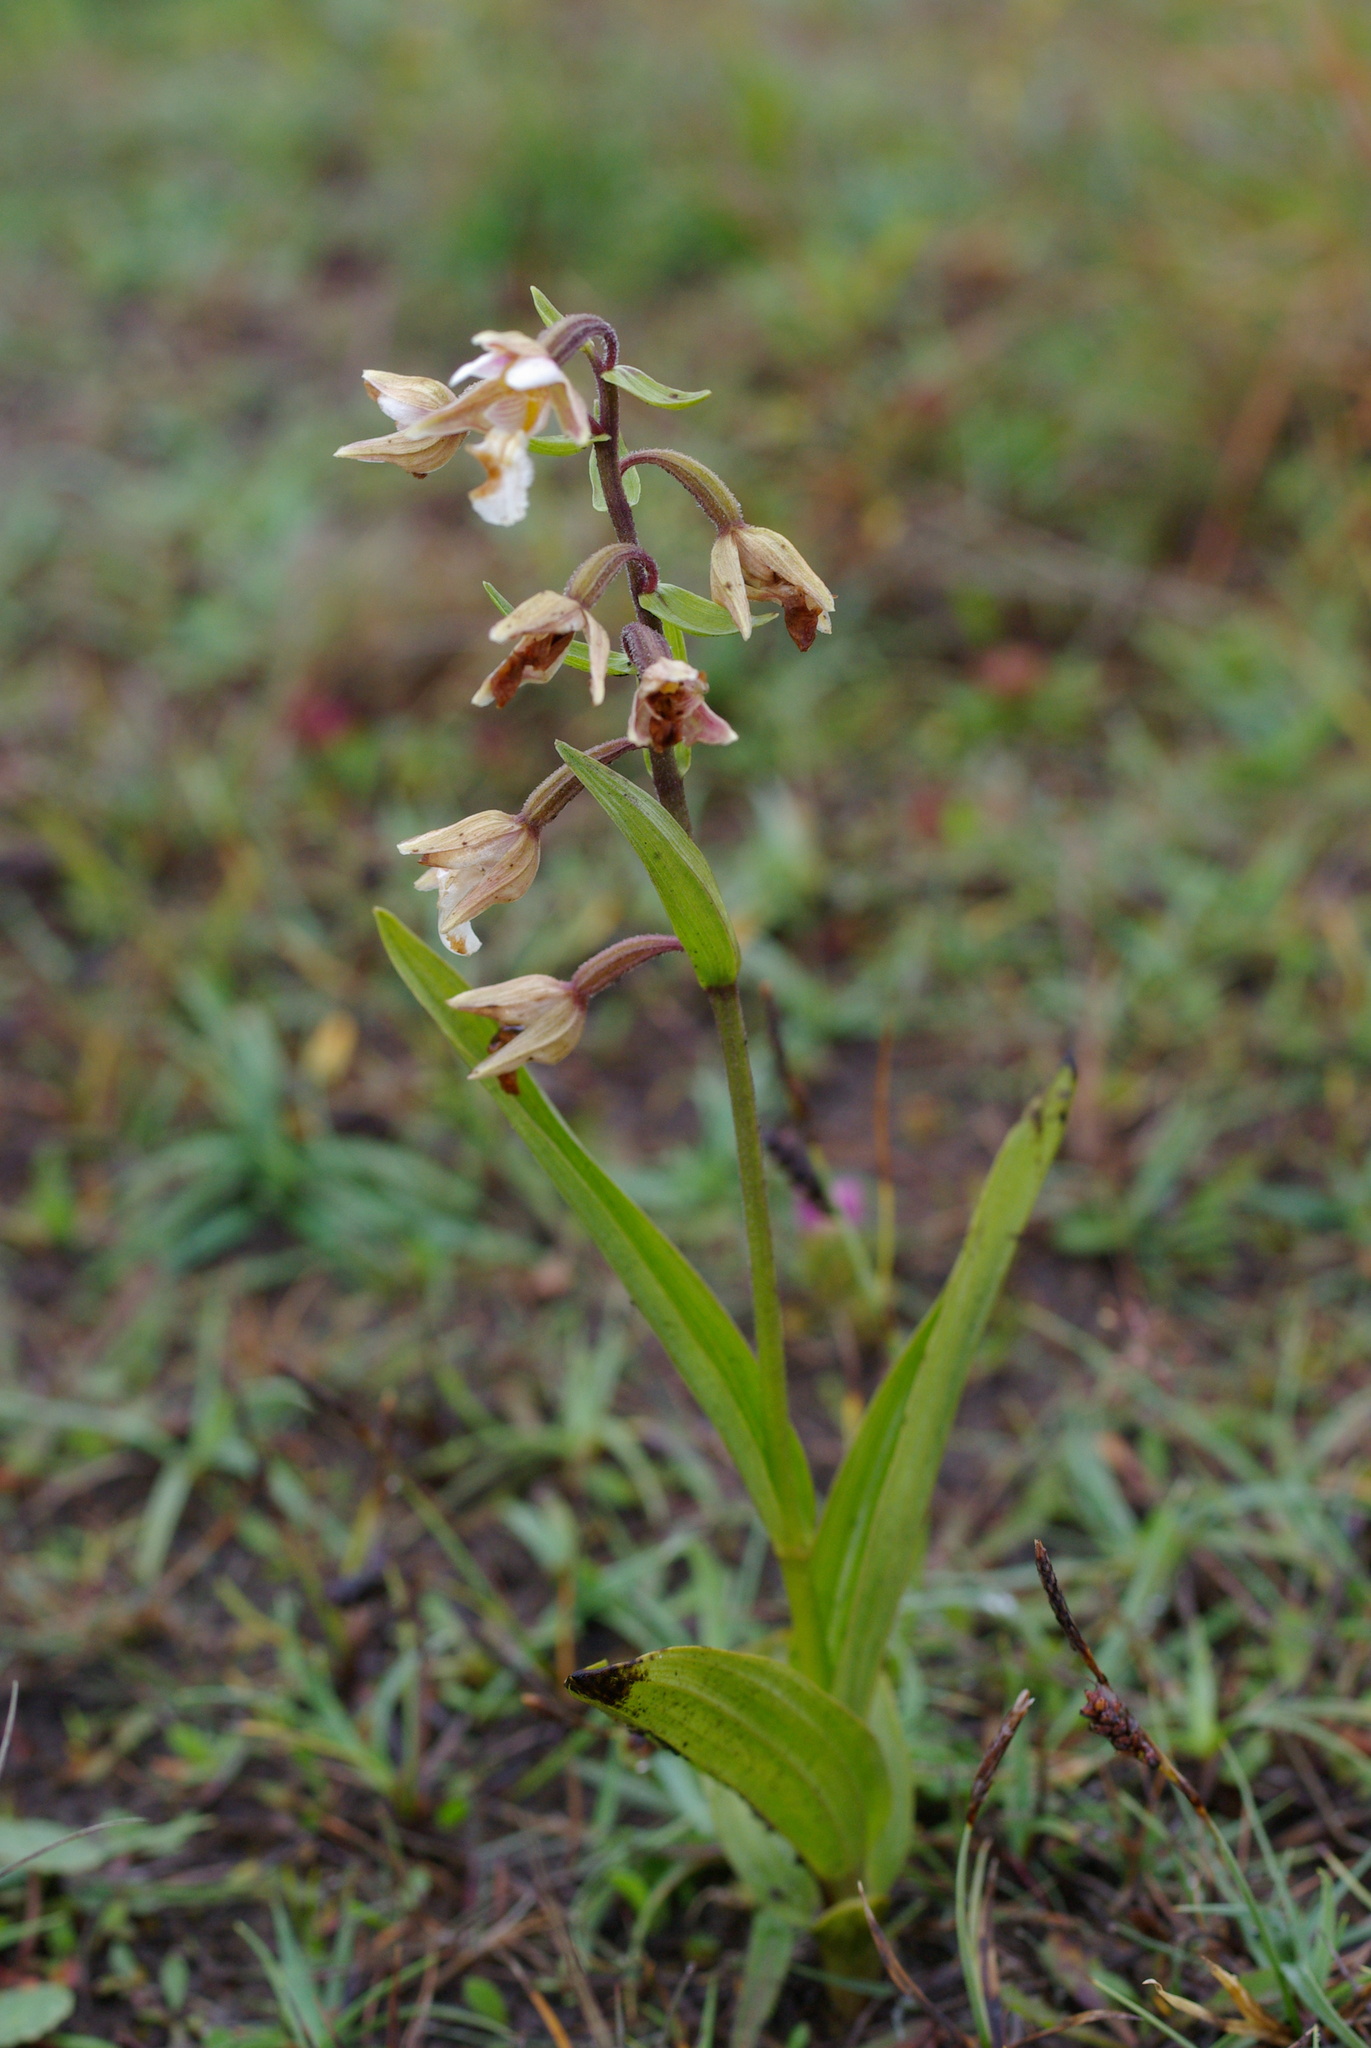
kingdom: Plantae
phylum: Tracheophyta
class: Liliopsida
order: Asparagales
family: Orchidaceae
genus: Epipactis
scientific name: Epipactis palustris
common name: Marsh helleborine
